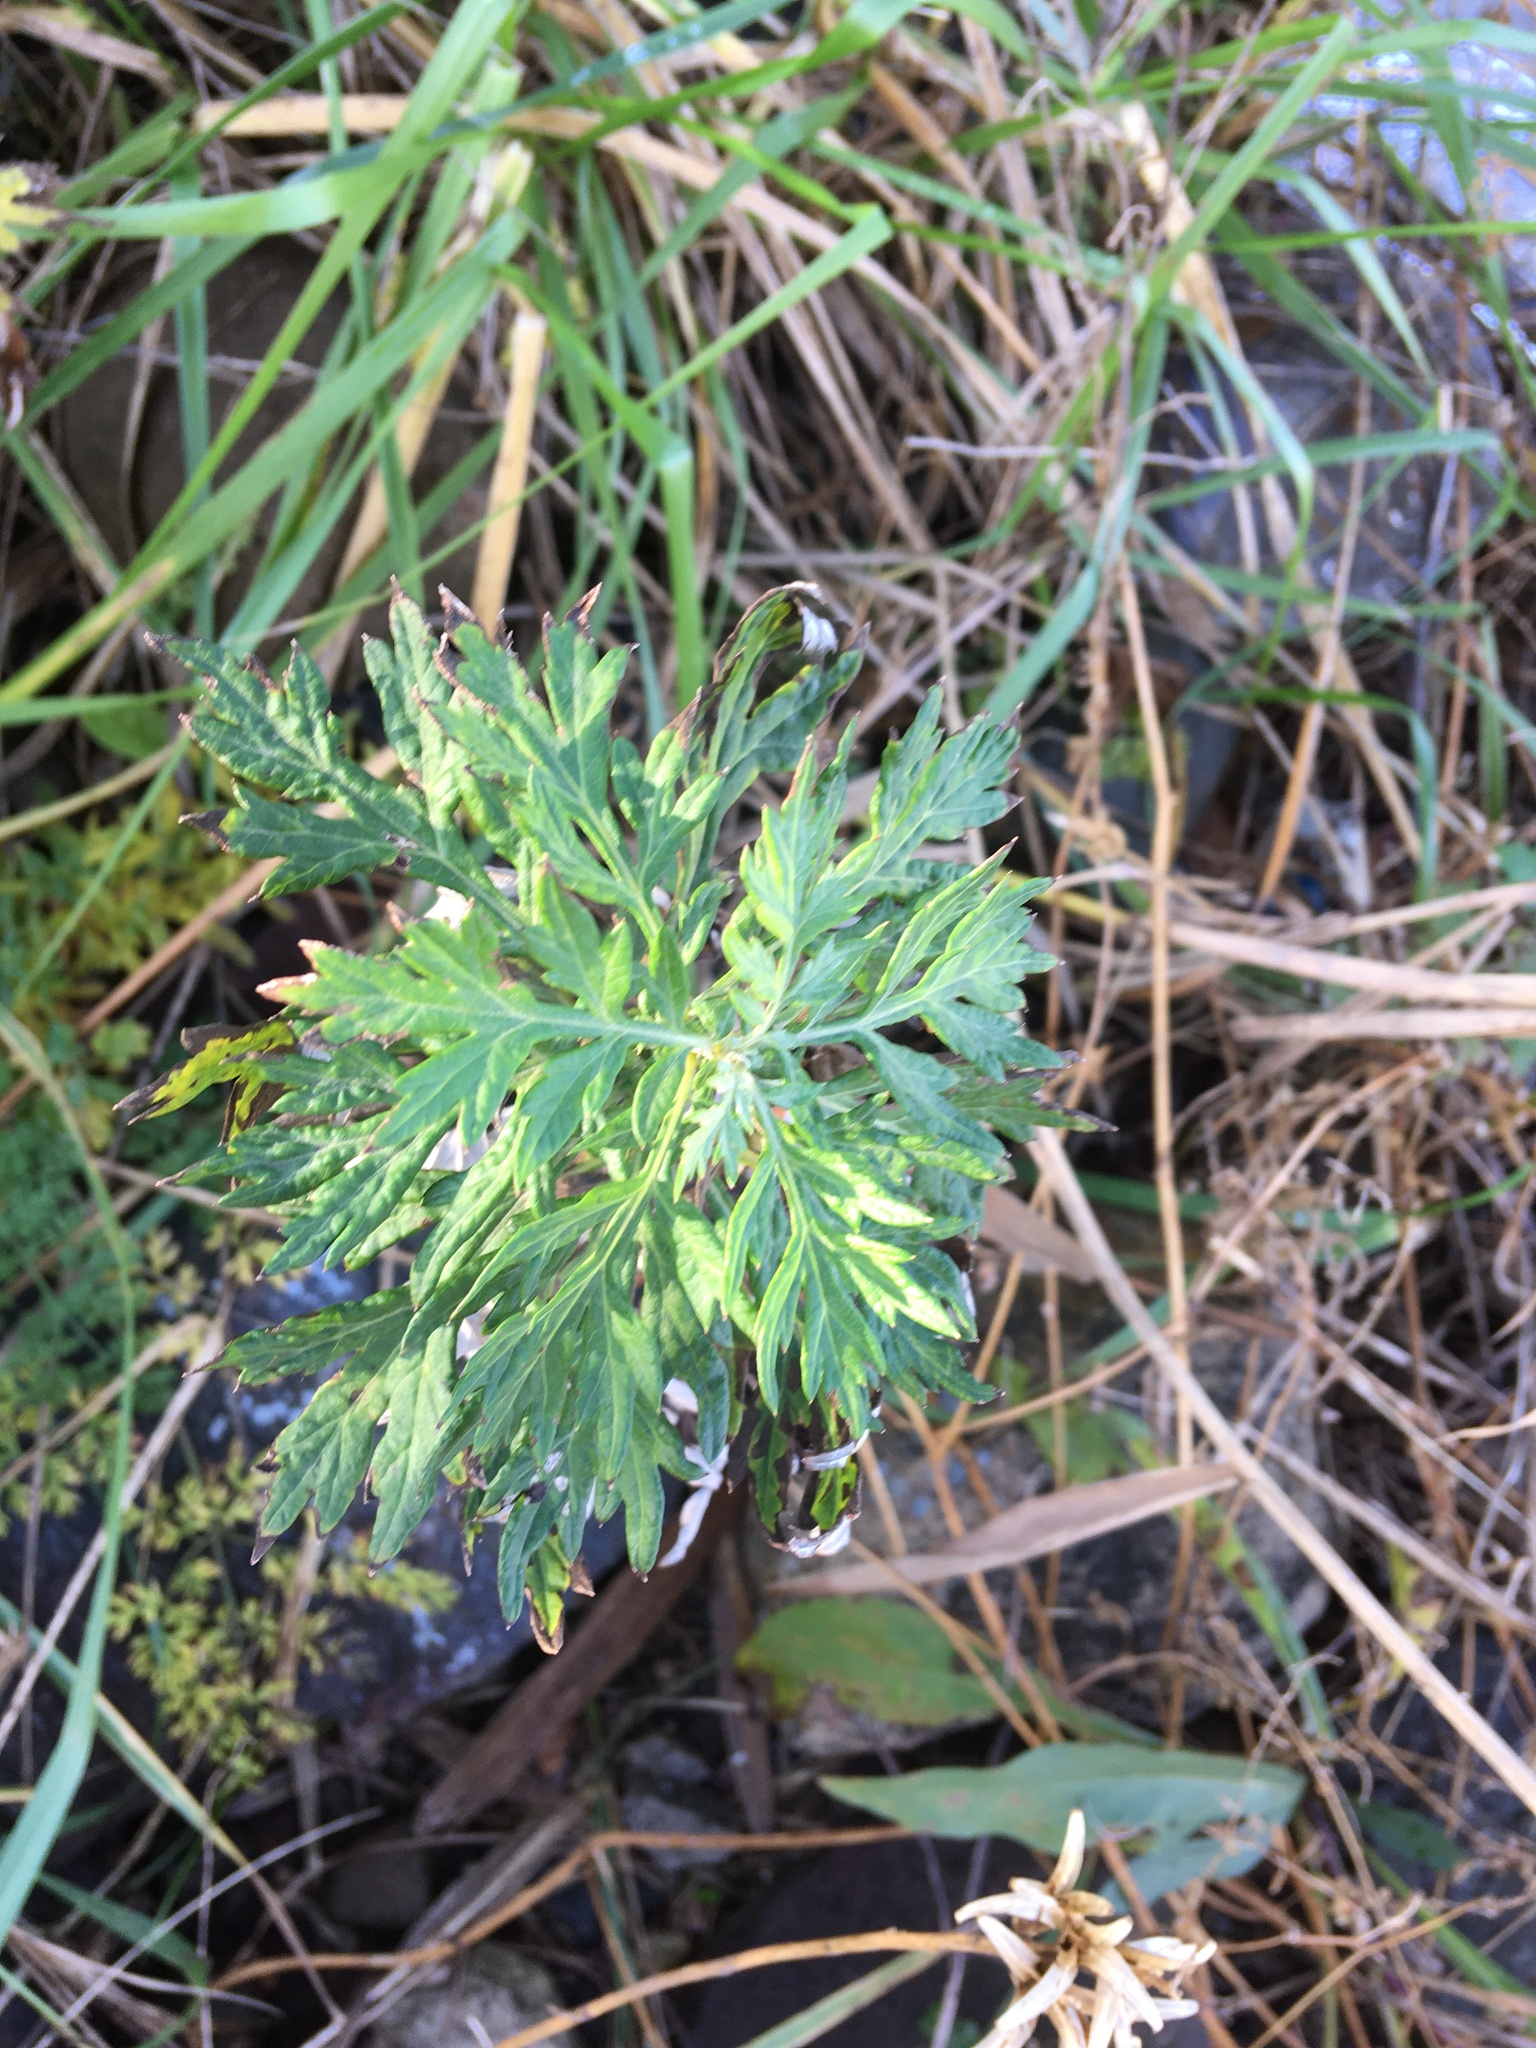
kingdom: Plantae
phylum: Tracheophyta
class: Magnoliopsida
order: Asterales
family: Asteraceae
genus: Artemisia
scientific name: Artemisia vulgaris
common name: Mugwort
